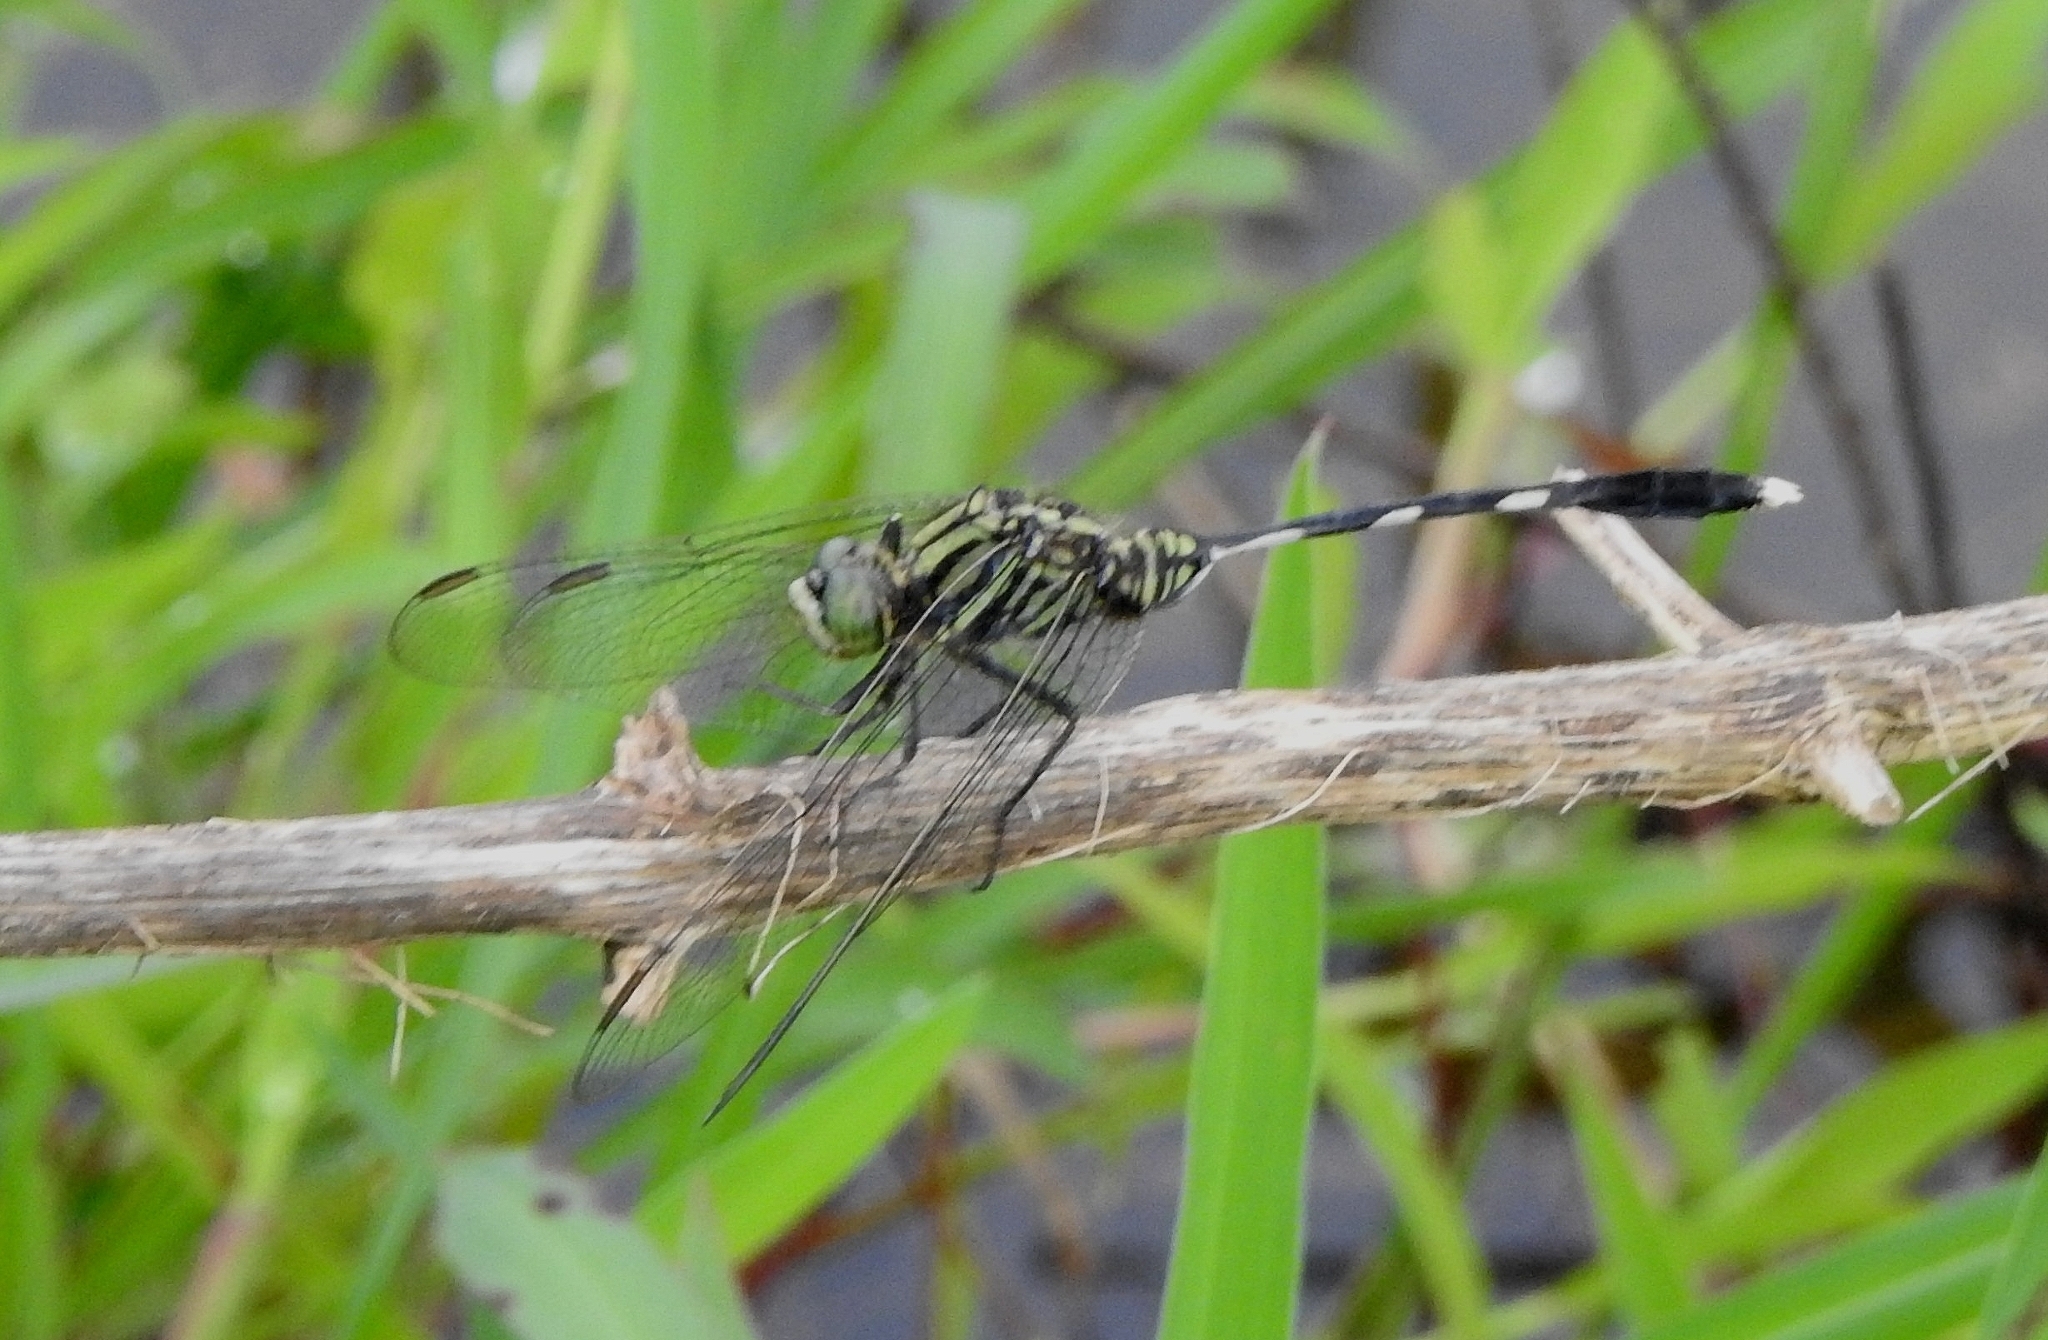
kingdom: Animalia
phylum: Arthropoda
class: Insecta
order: Odonata
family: Libellulidae
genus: Orthetrum
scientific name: Orthetrum sabina
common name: Slender skimmer
